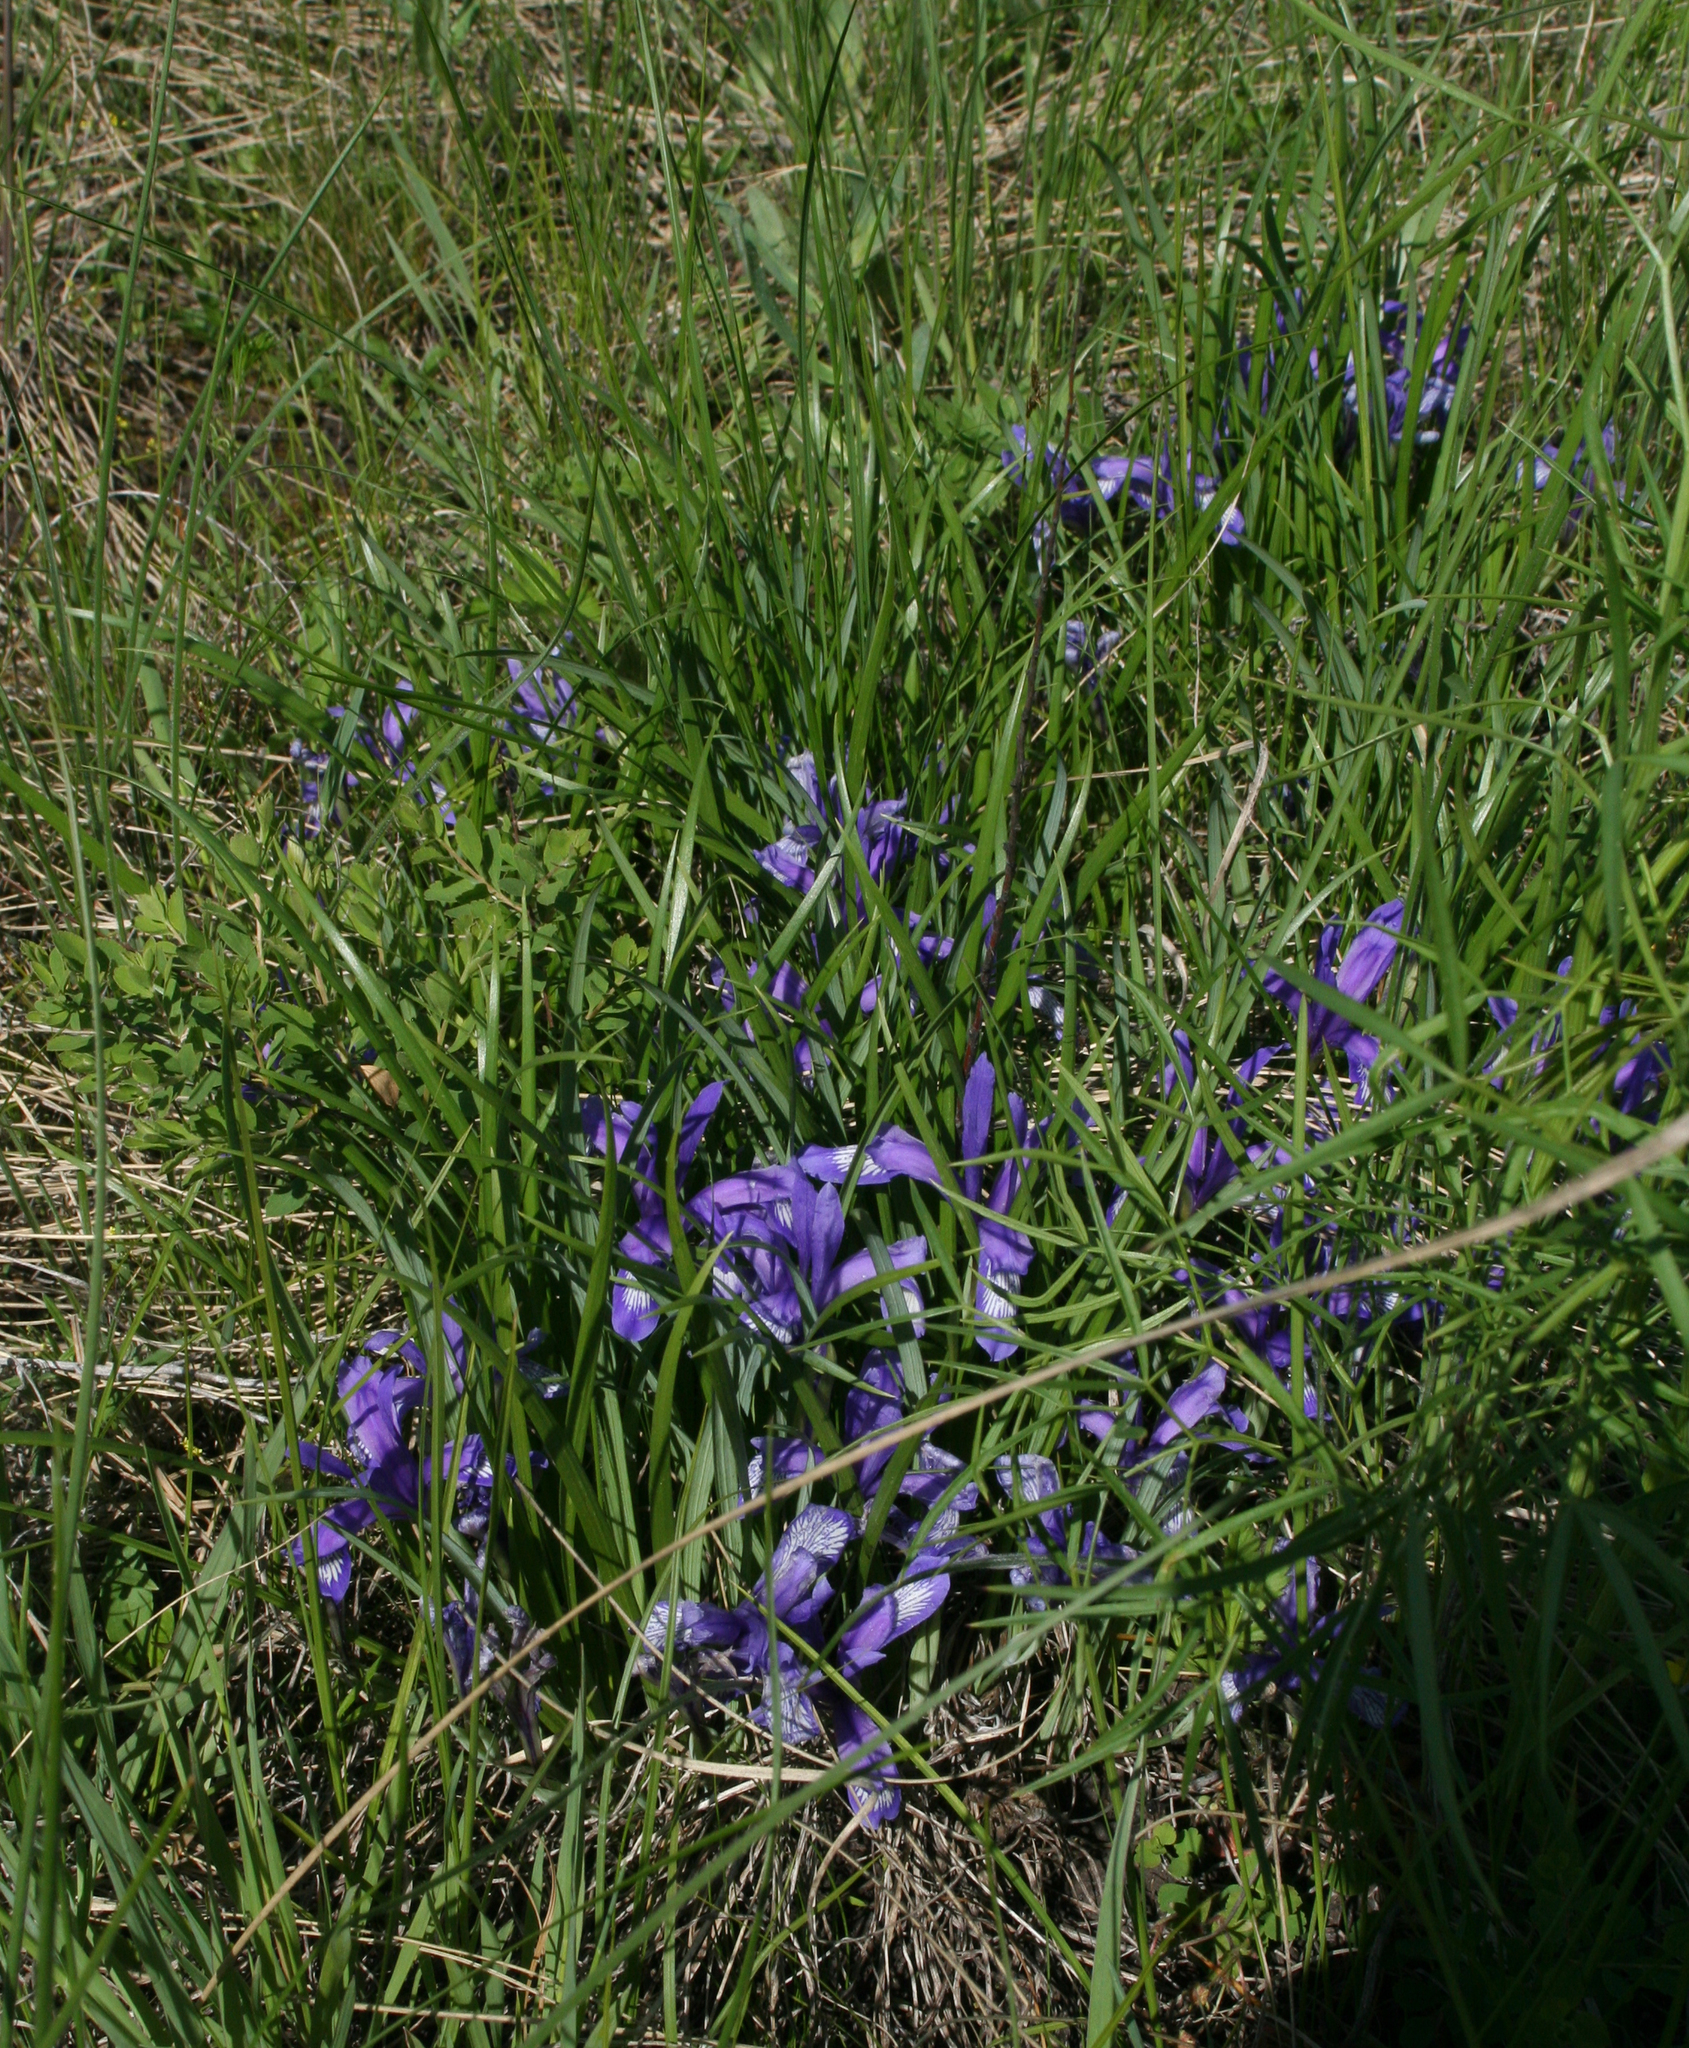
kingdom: Plantae
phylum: Tracheophyta
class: Liliopsida
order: Asparagales
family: Iridaceae
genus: Iris
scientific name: Iris ruthenica
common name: Purple-bract iris
